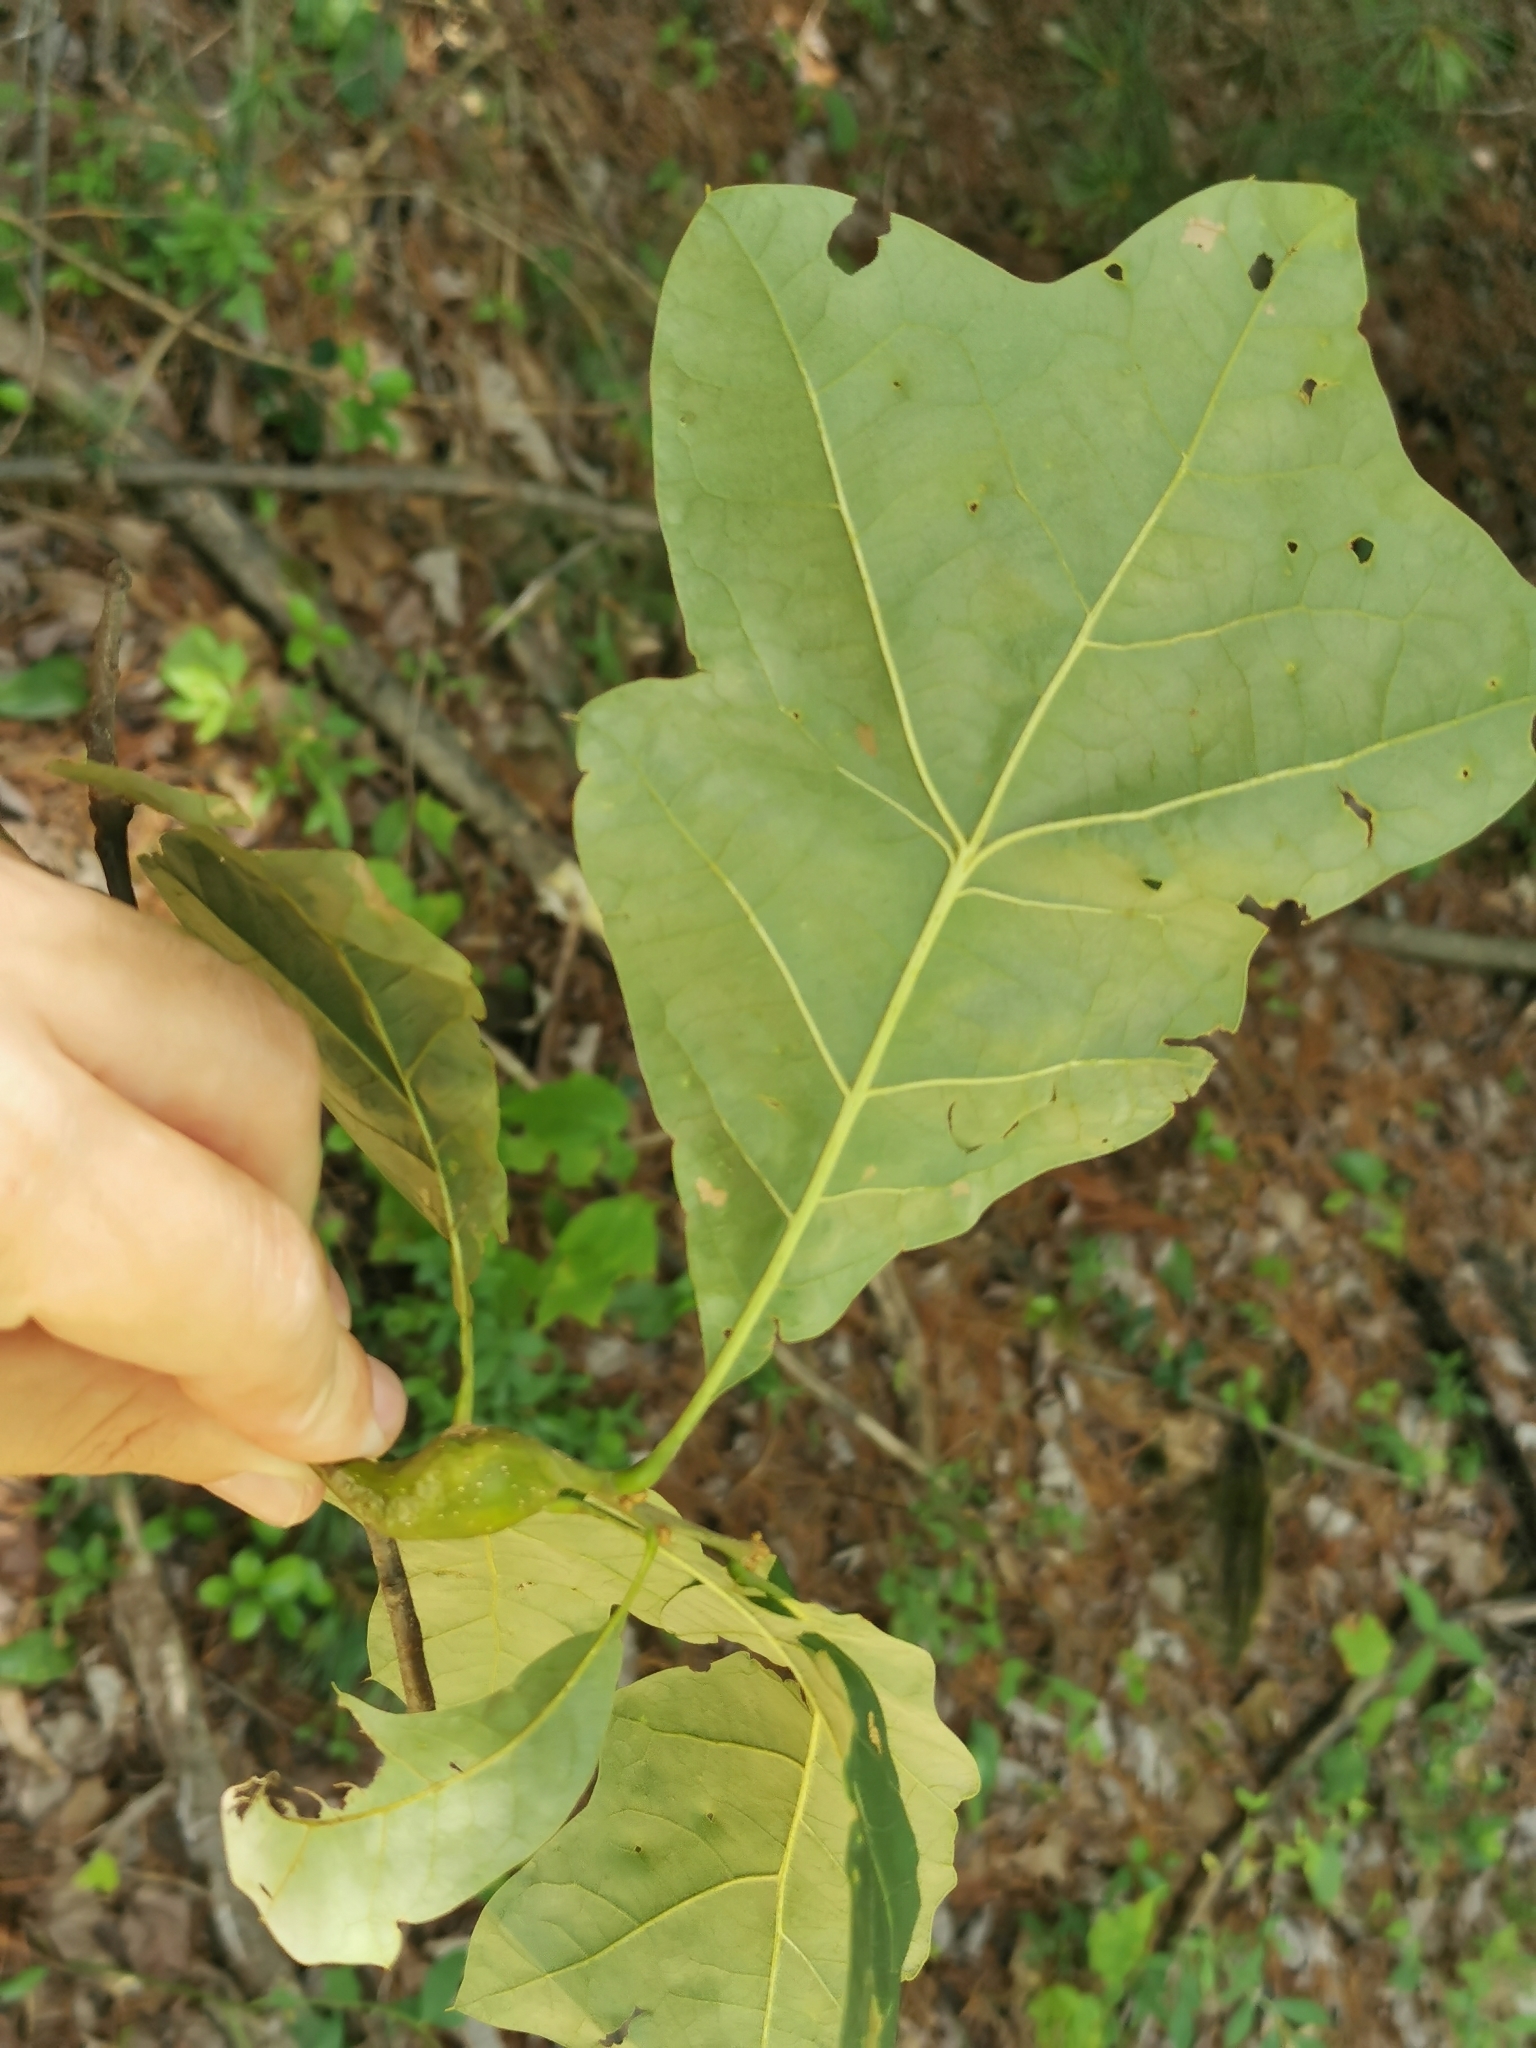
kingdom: Animalia
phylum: Arthropoda
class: Insecta
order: Hymenoptera
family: Cynipidae
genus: Zapatella
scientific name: Zapatella quercusphellos
